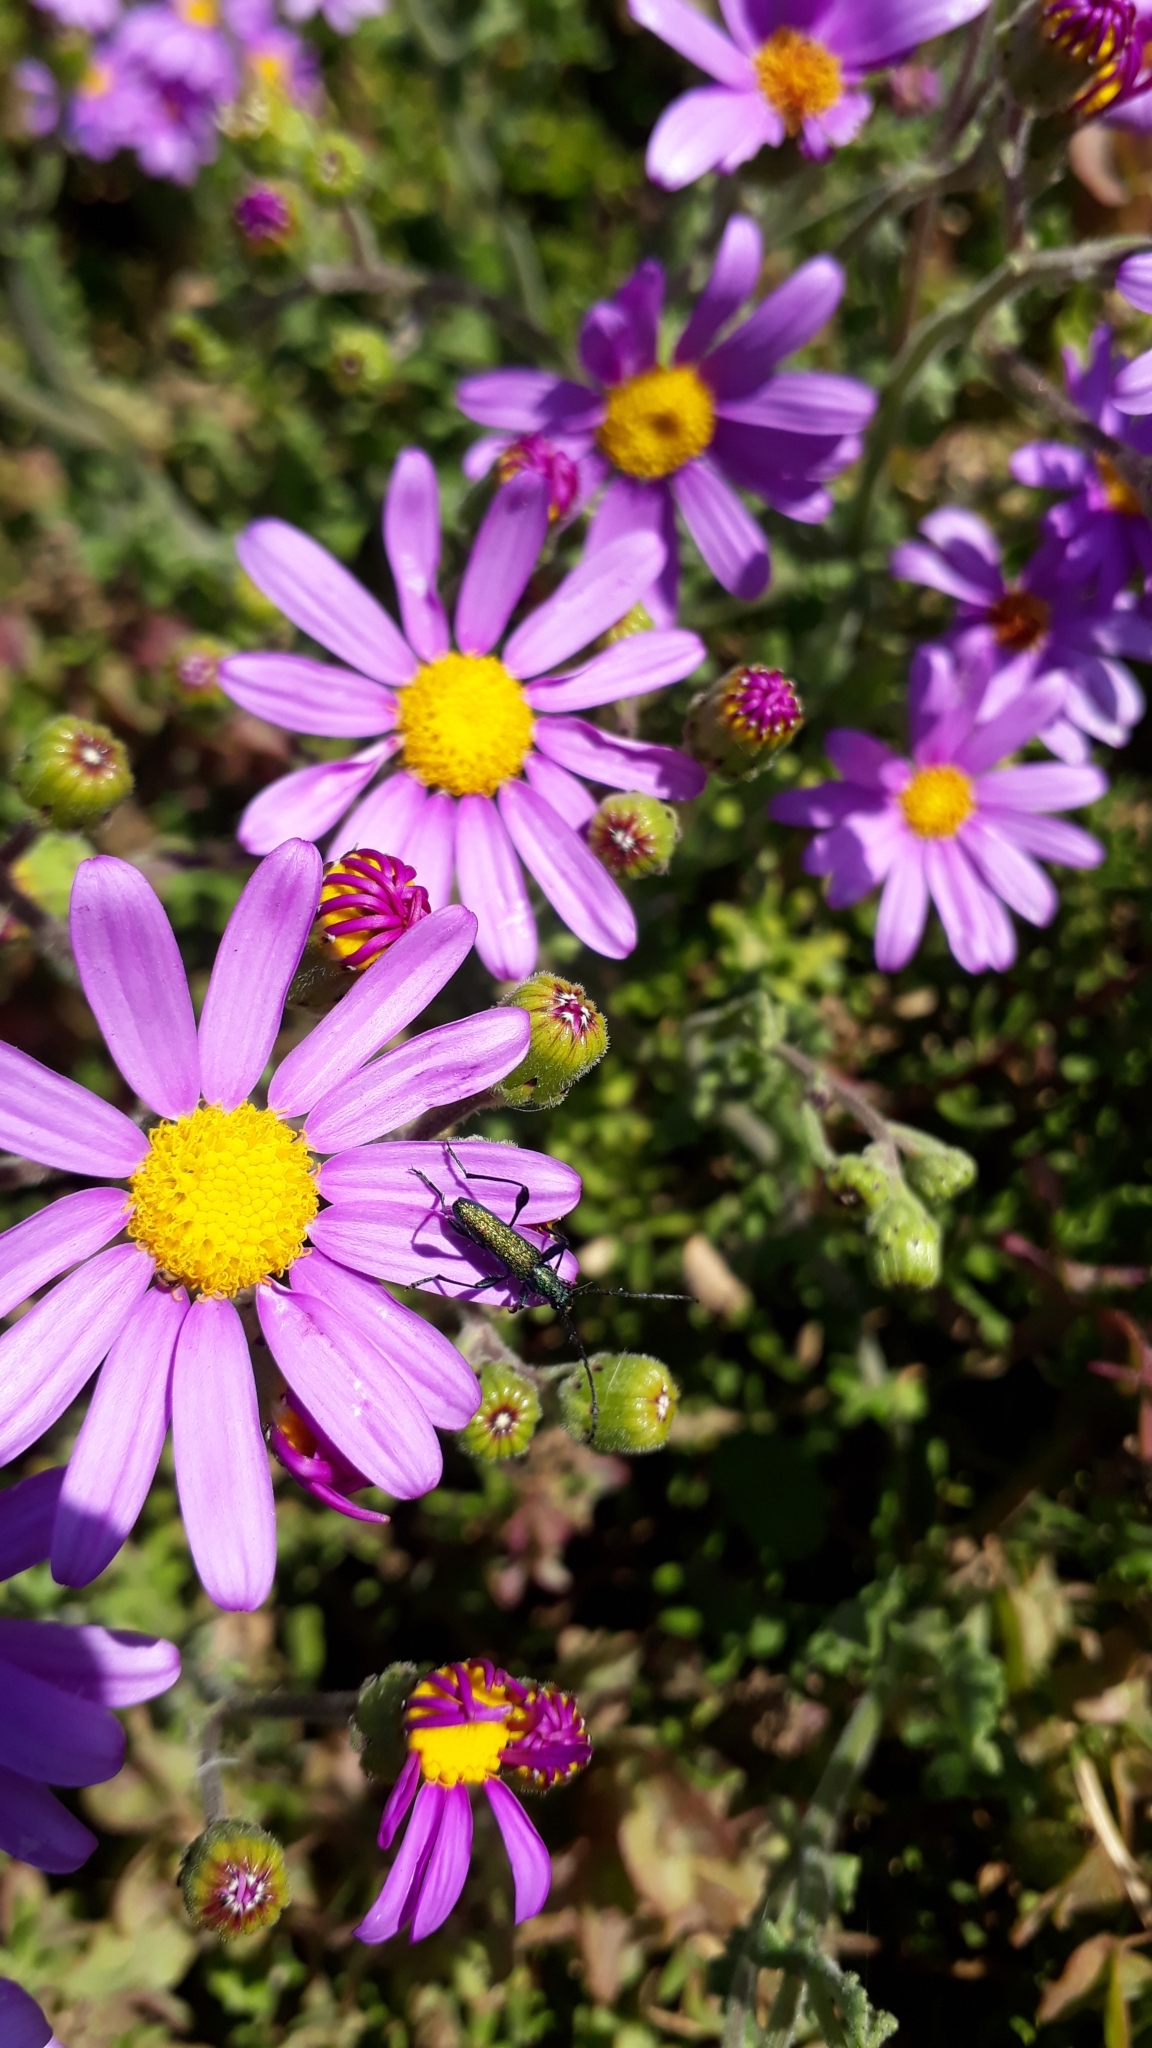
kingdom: Plantae
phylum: Tracheophyta
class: Magnoliopsida
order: Asterales
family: Asteraceae
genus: Senecio
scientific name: Senecio elegans
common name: Purple groundsel
